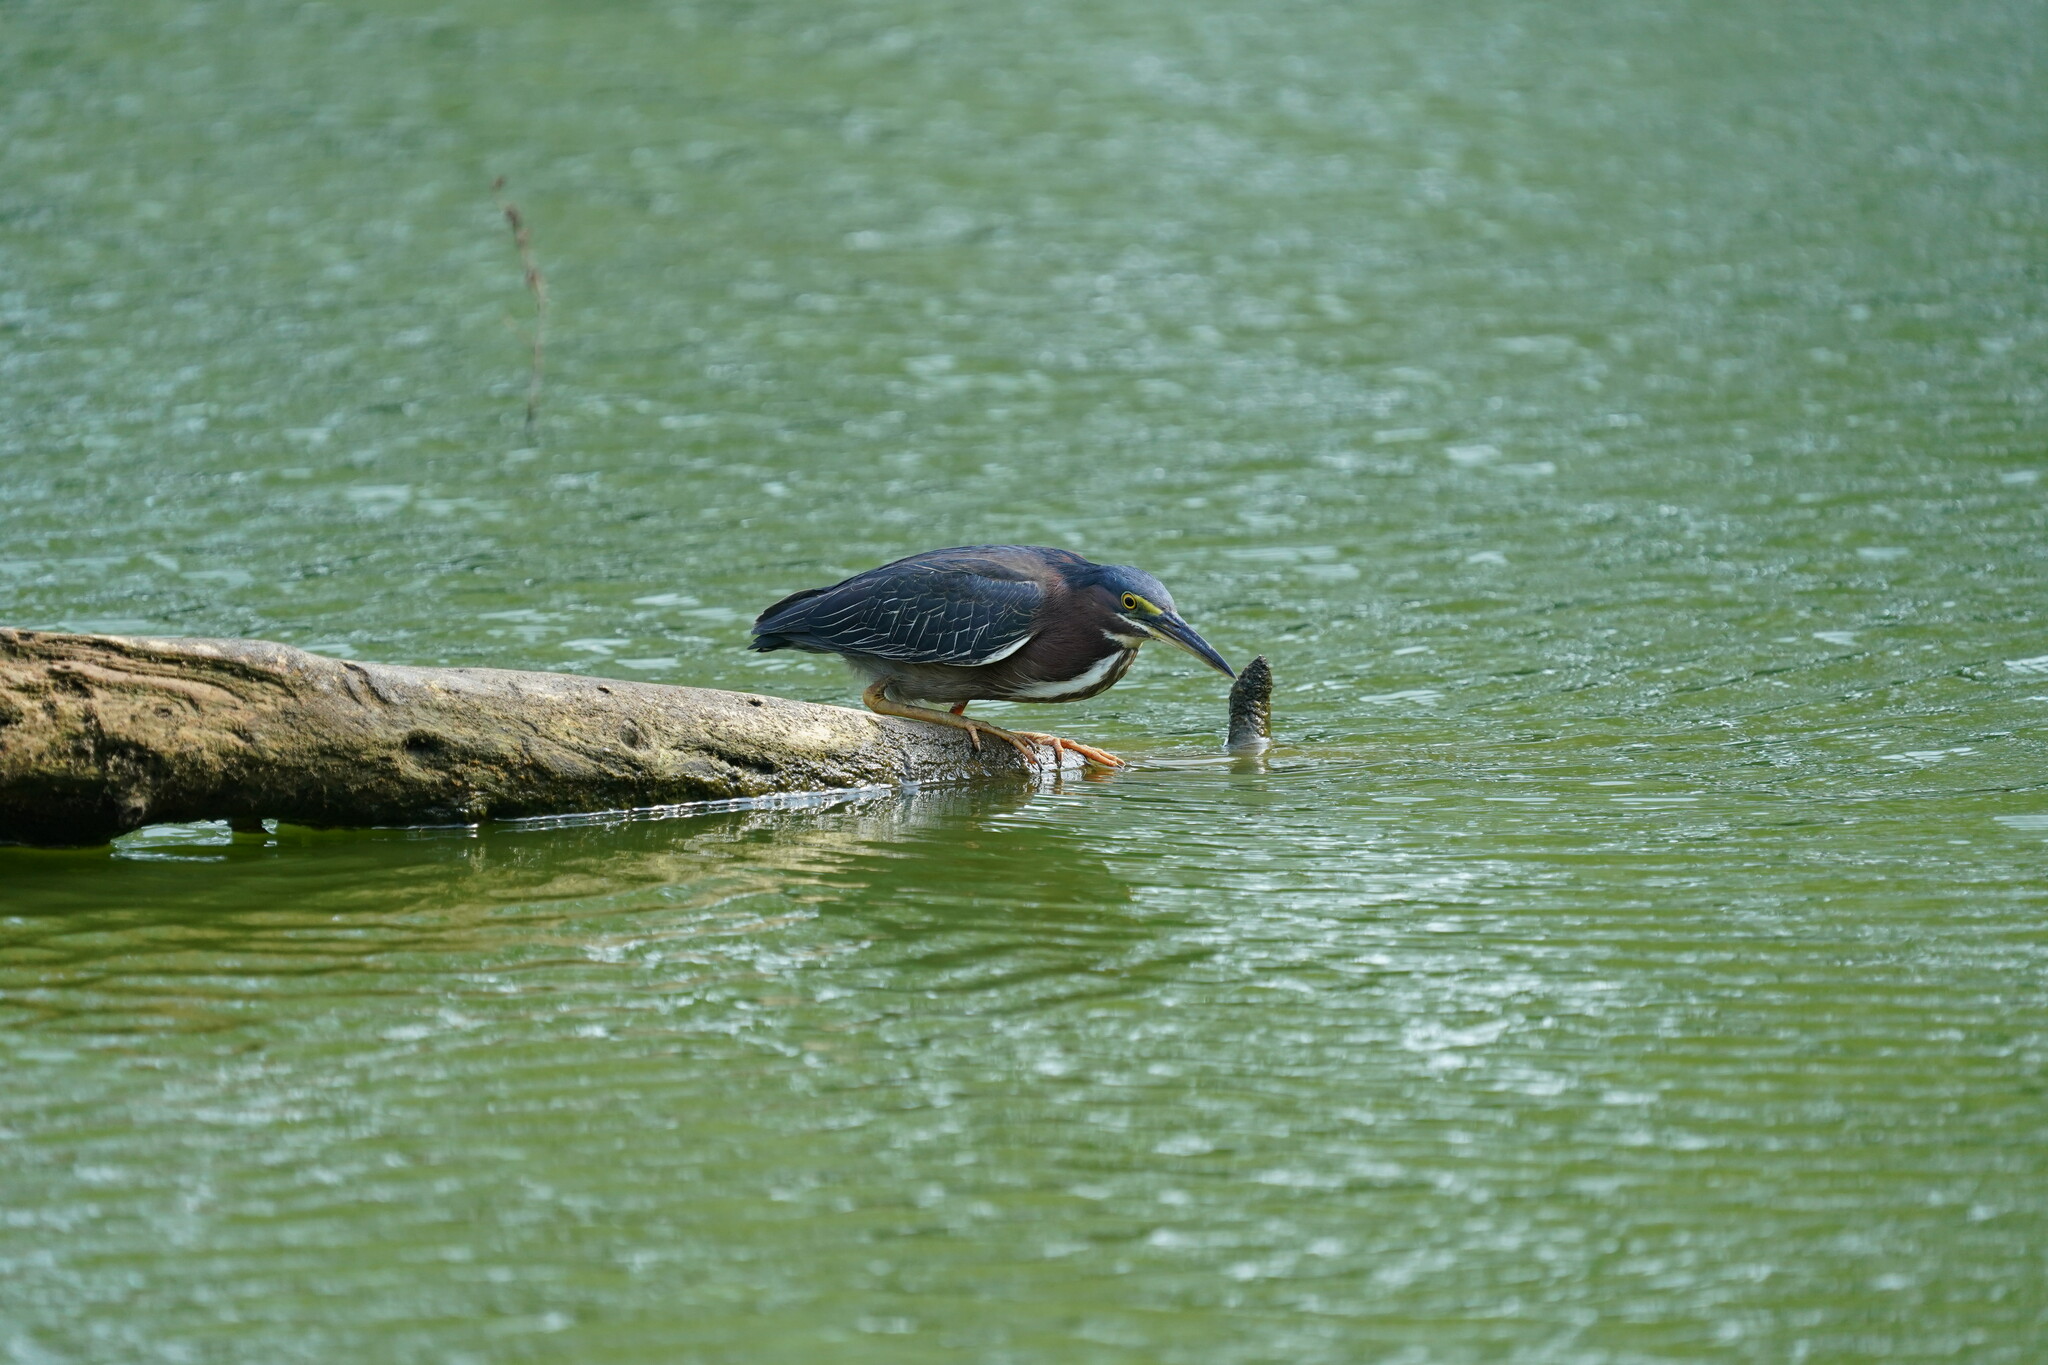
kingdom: Animalia
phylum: Chordata
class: Aves
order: Pelecaniformes
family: Ardeidae
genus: Butorides
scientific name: Butorides virescens
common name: Green heron
